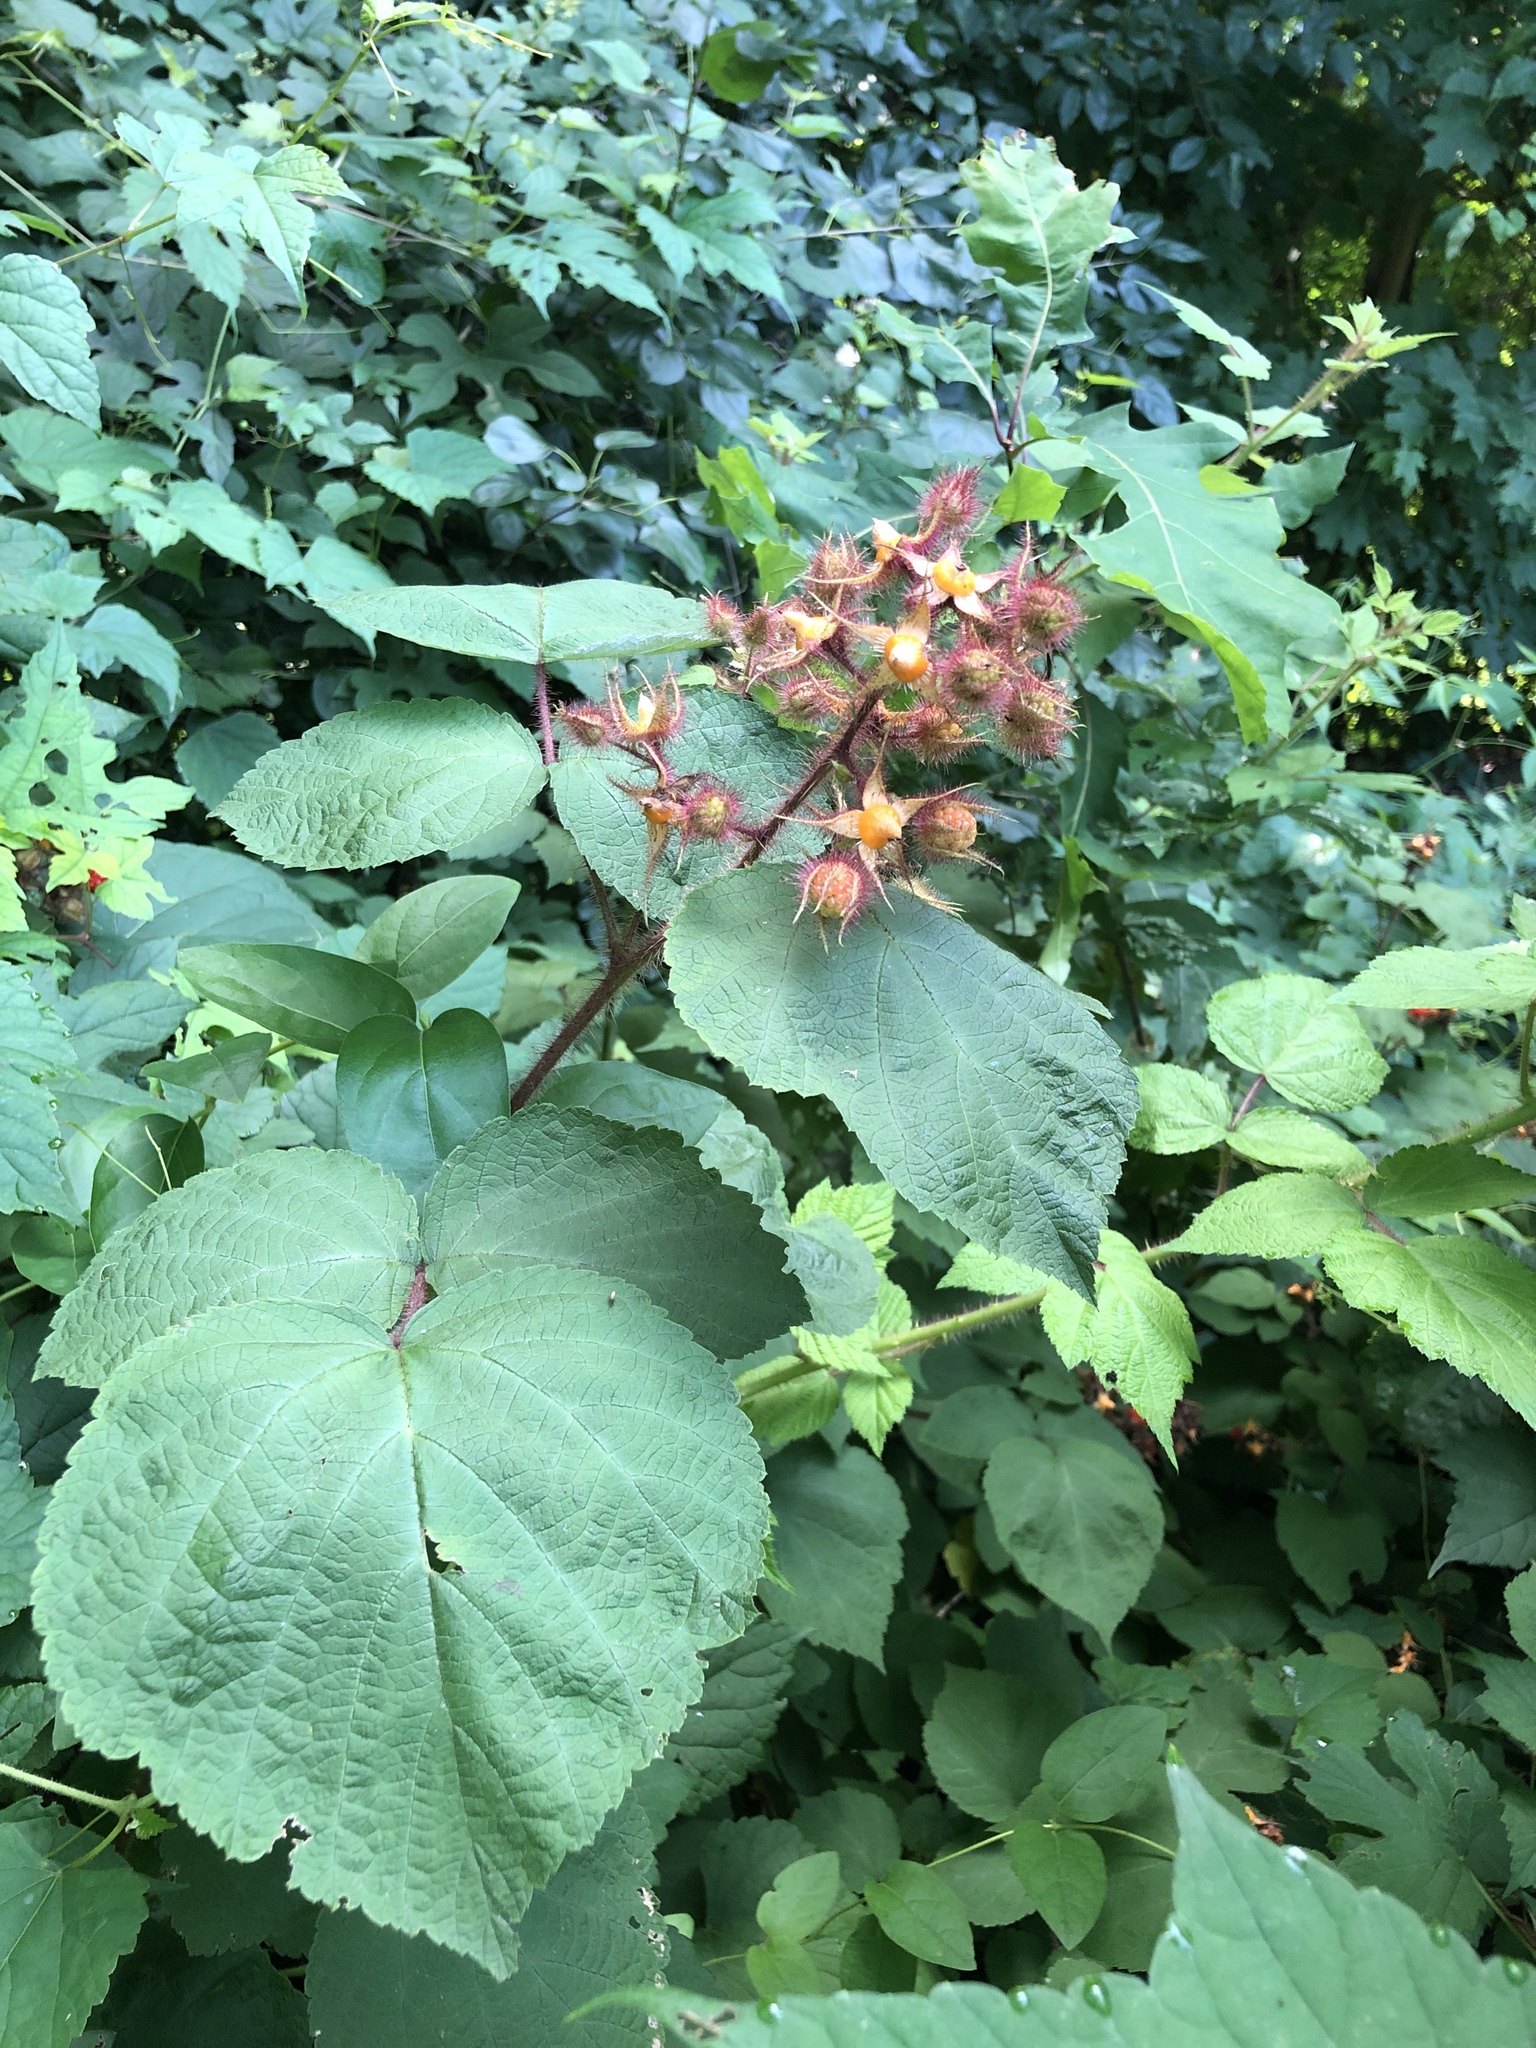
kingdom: Plantae
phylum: Tracheophyta
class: Magnoliopsida
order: Rosales
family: Rosaceae
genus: Rubus
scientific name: Rubus phoenicolasius
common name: Japanese wineberry
